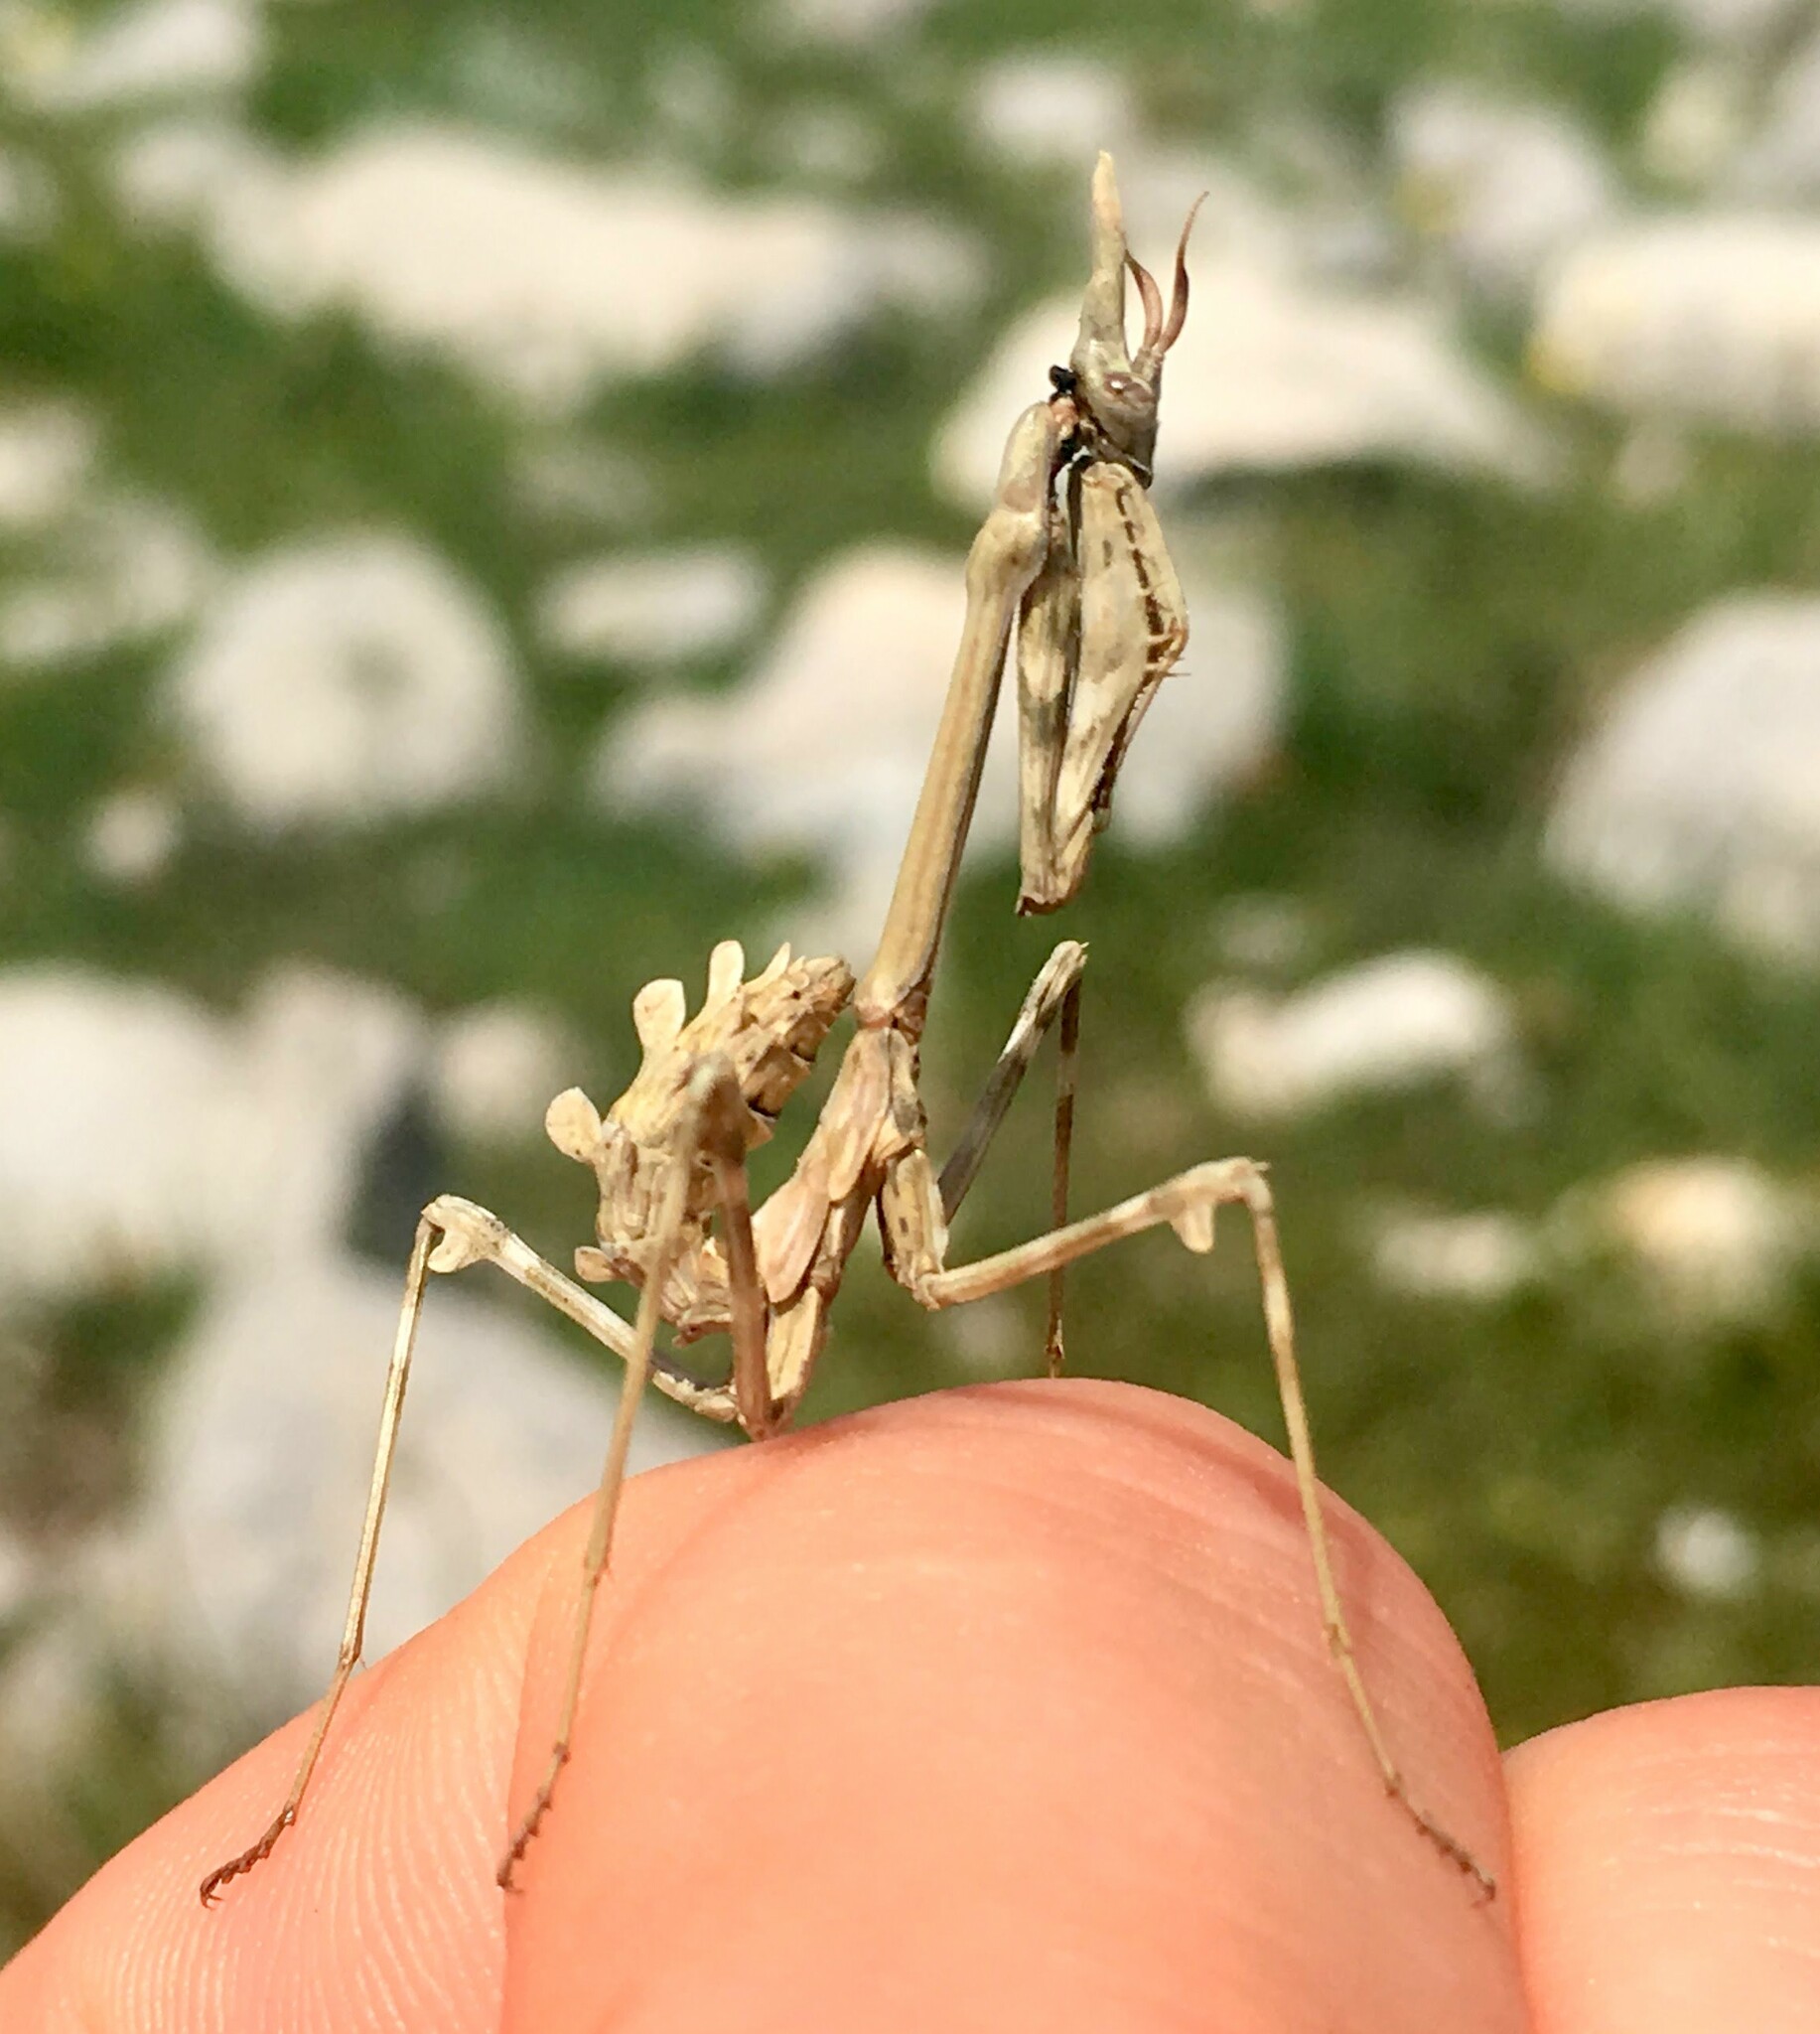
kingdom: Animalia
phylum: Arthropoda
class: Insecta
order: Mantodea
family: Empusidae
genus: Empusa
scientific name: Empusa pennata
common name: Conehead mantis
